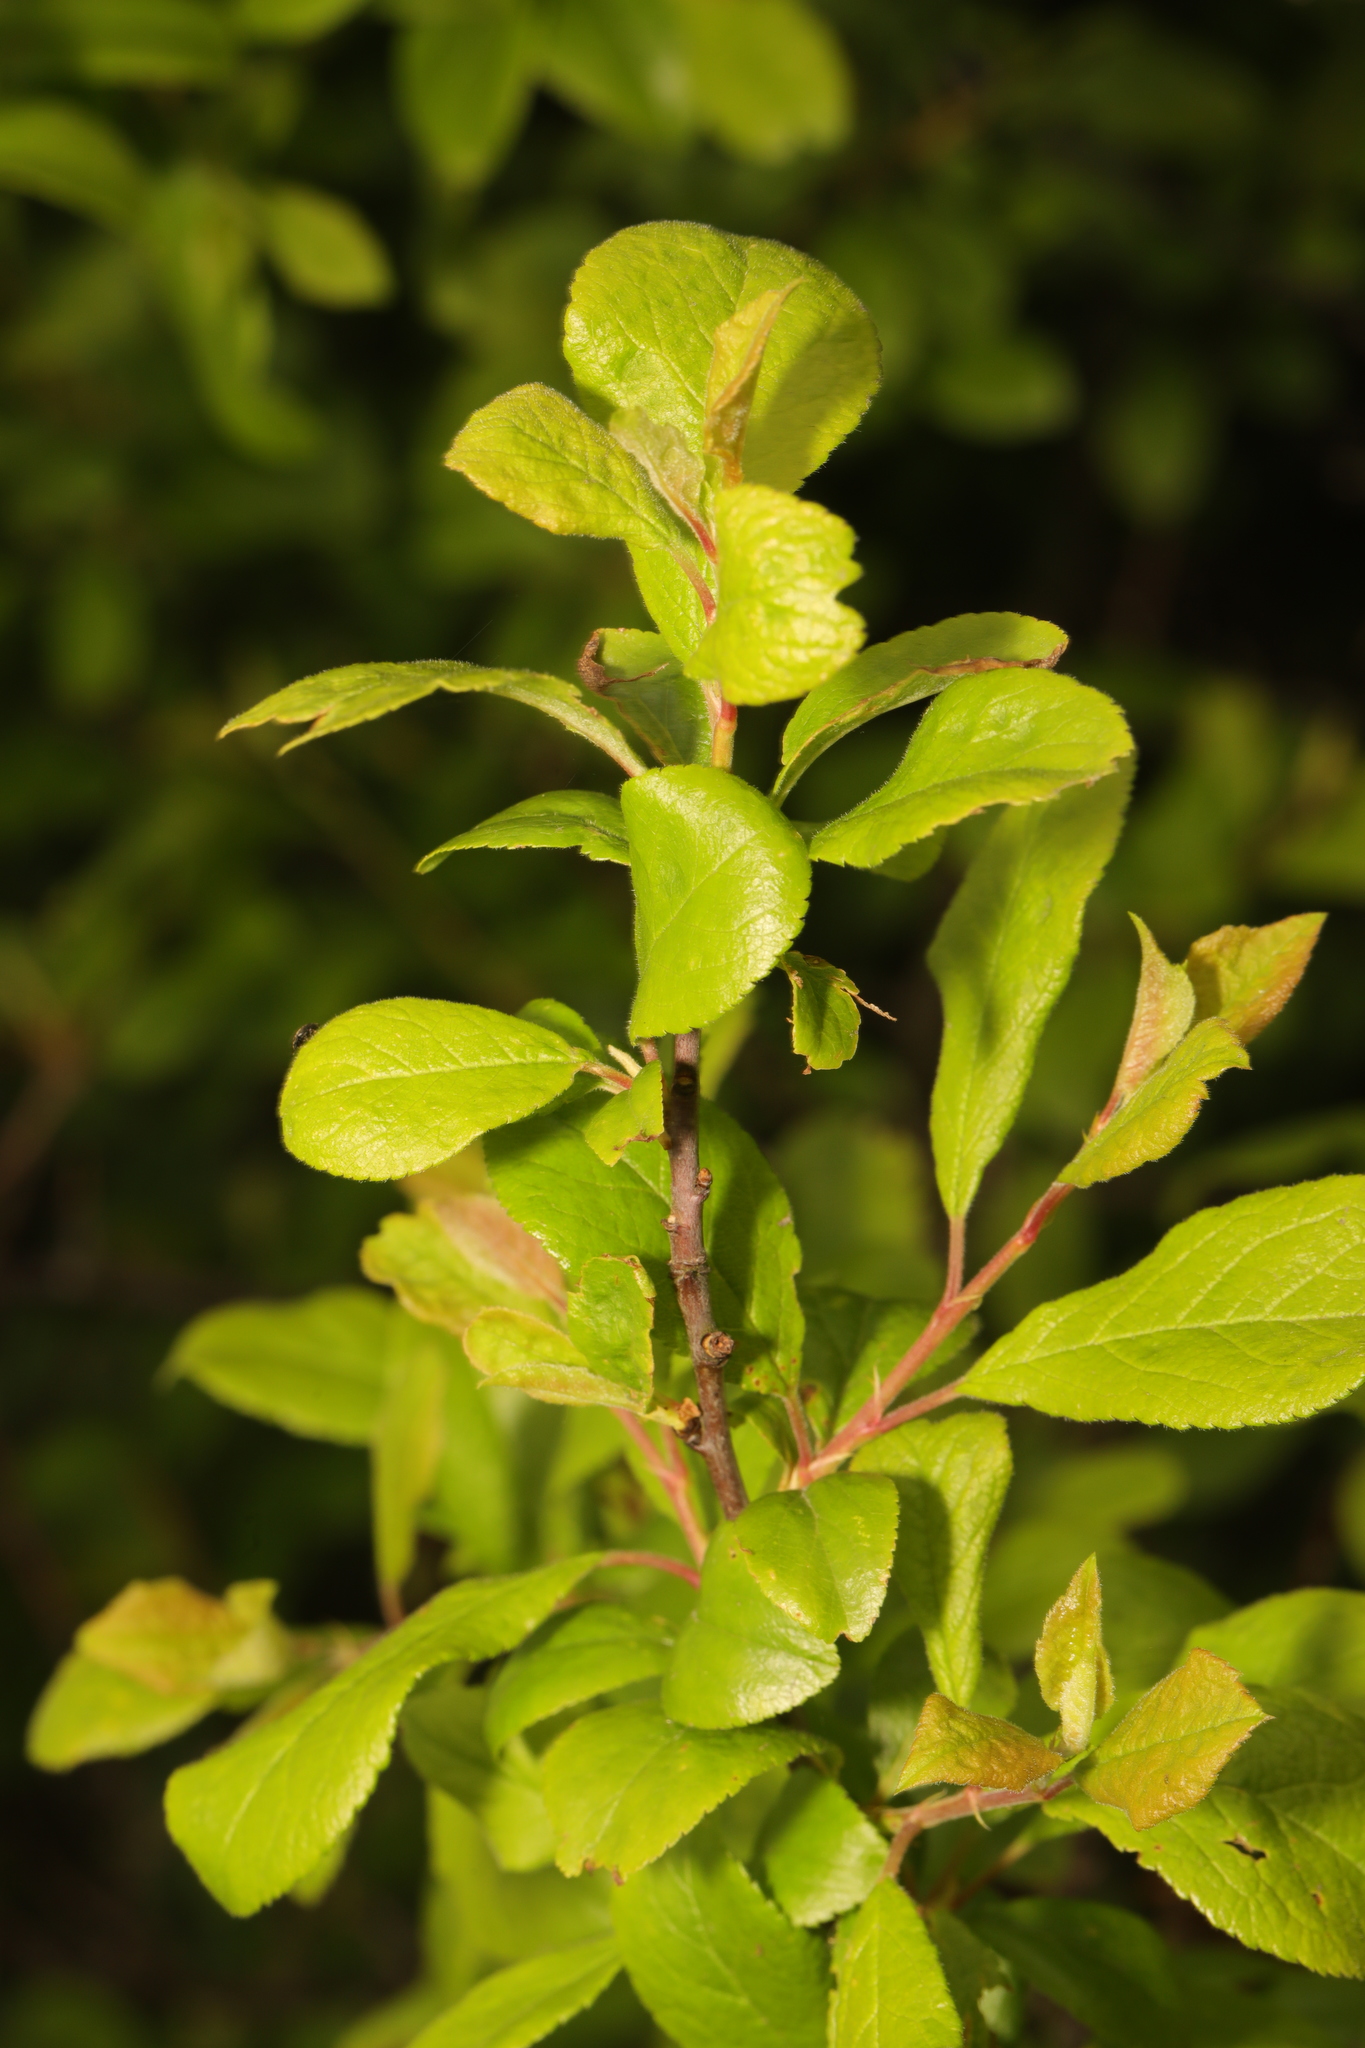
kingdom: Plantae
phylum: Tracheophyta
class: Magnoliopsida
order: Rosales
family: Rosaceae
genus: Prunus
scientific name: Prunus spinosa
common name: Blackthorn
